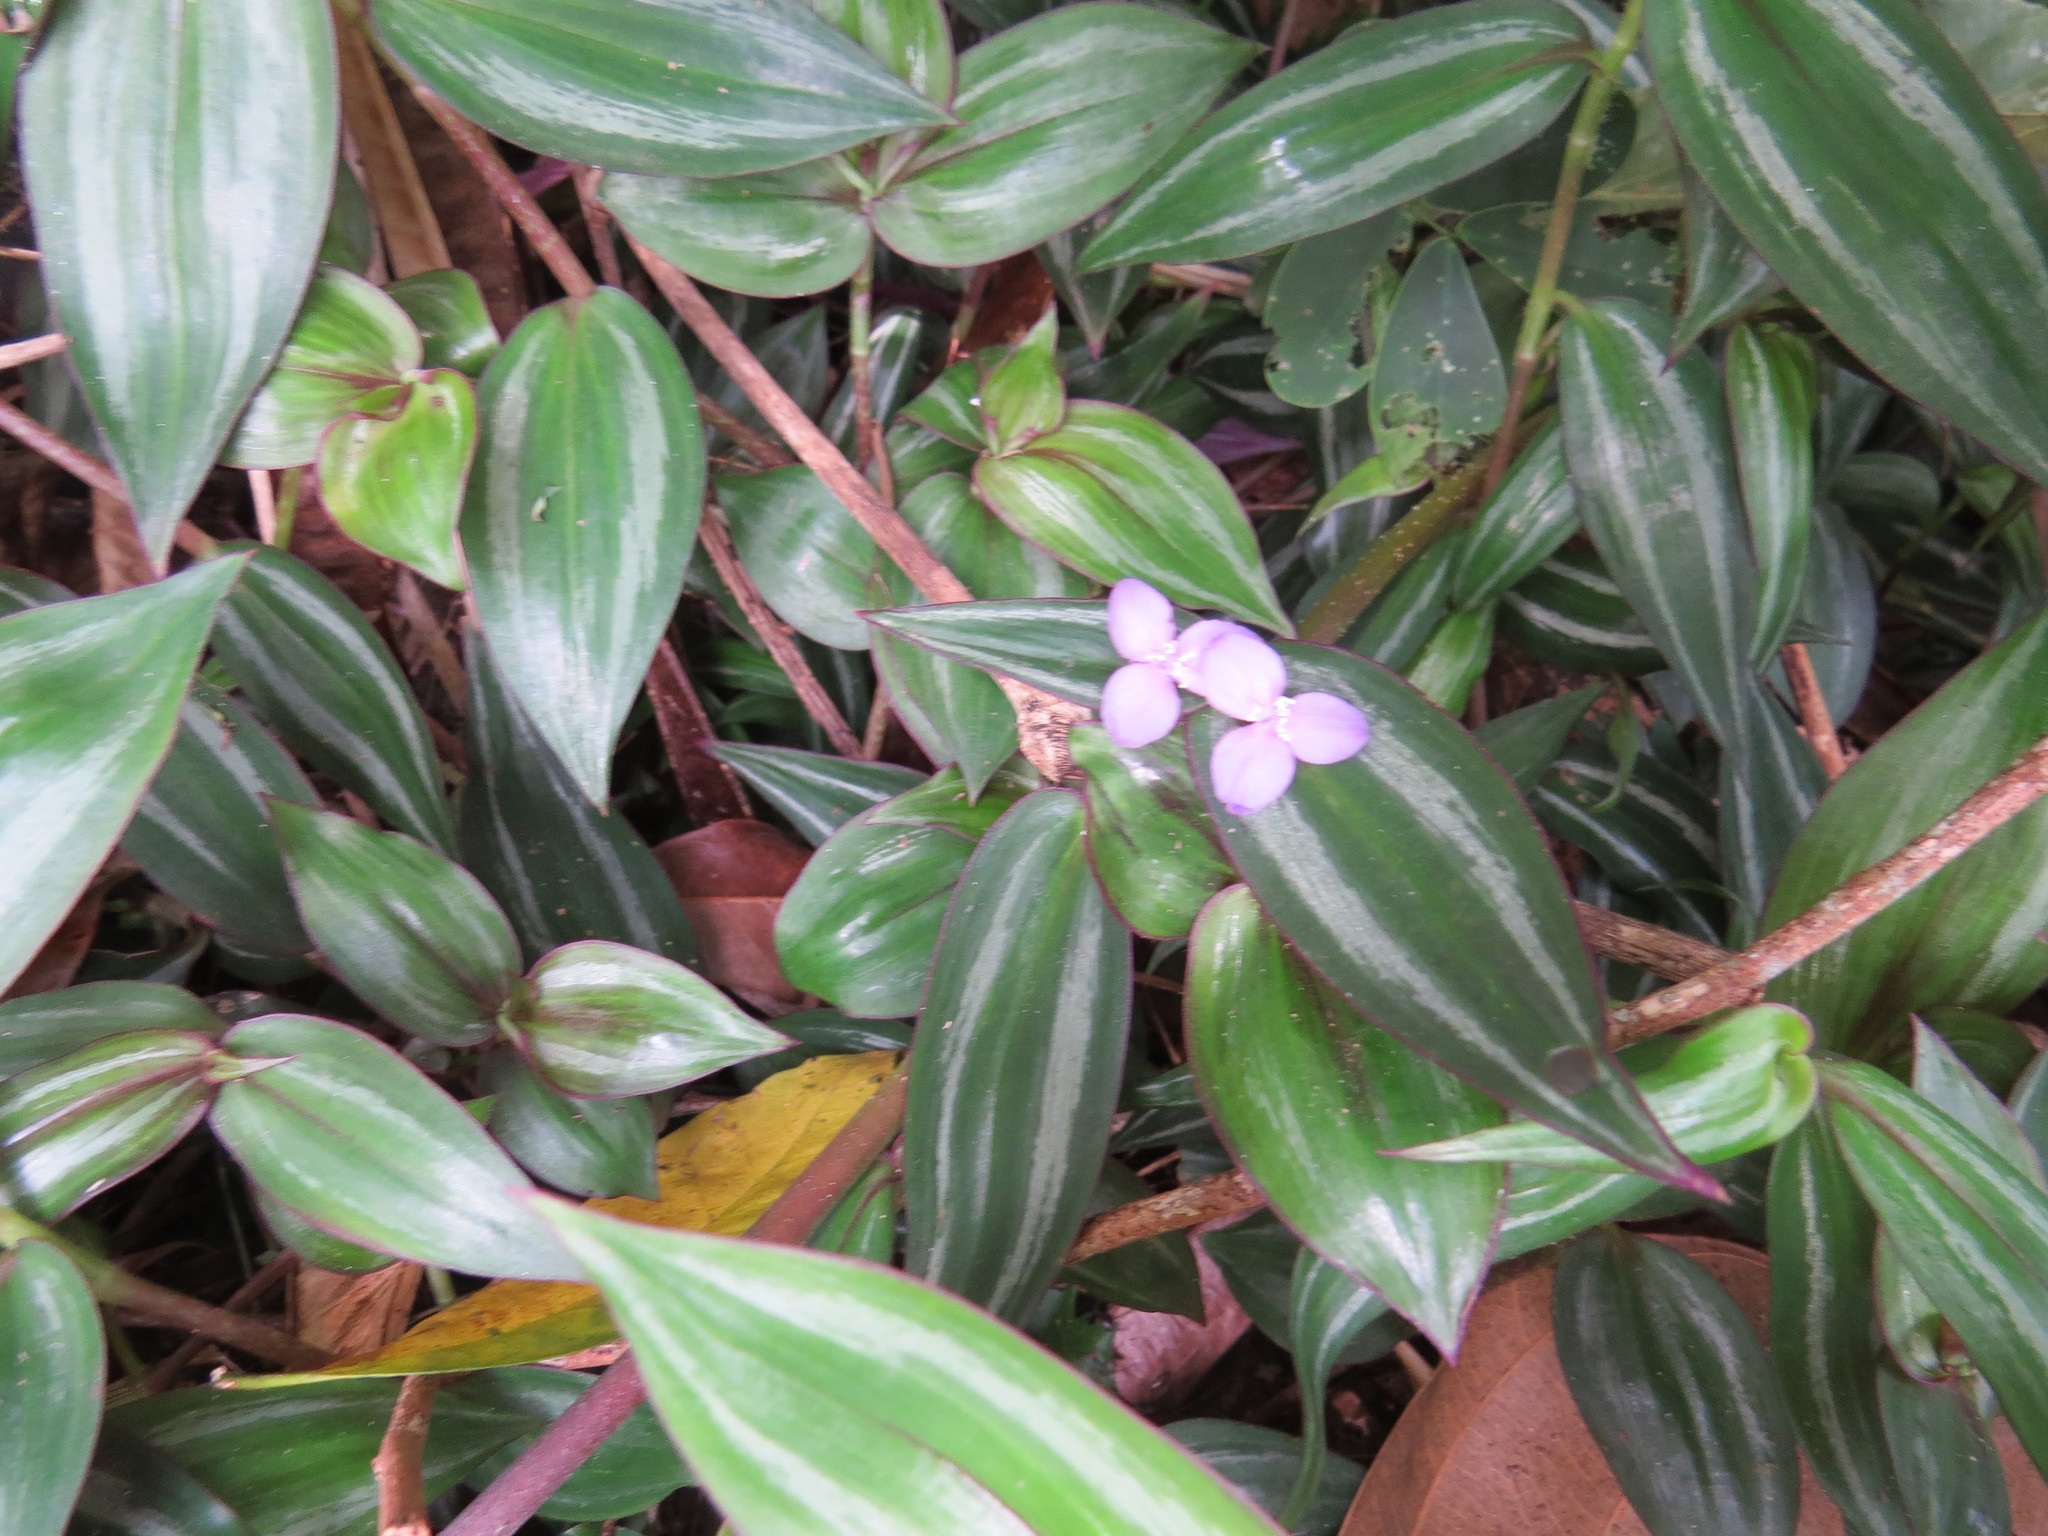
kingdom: Plantae
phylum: Tracheophyta
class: Liliopsida
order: Commelinales
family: Commelinaceae
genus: Tradescantia
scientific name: Tradescantia zebrina
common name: Inchplant
